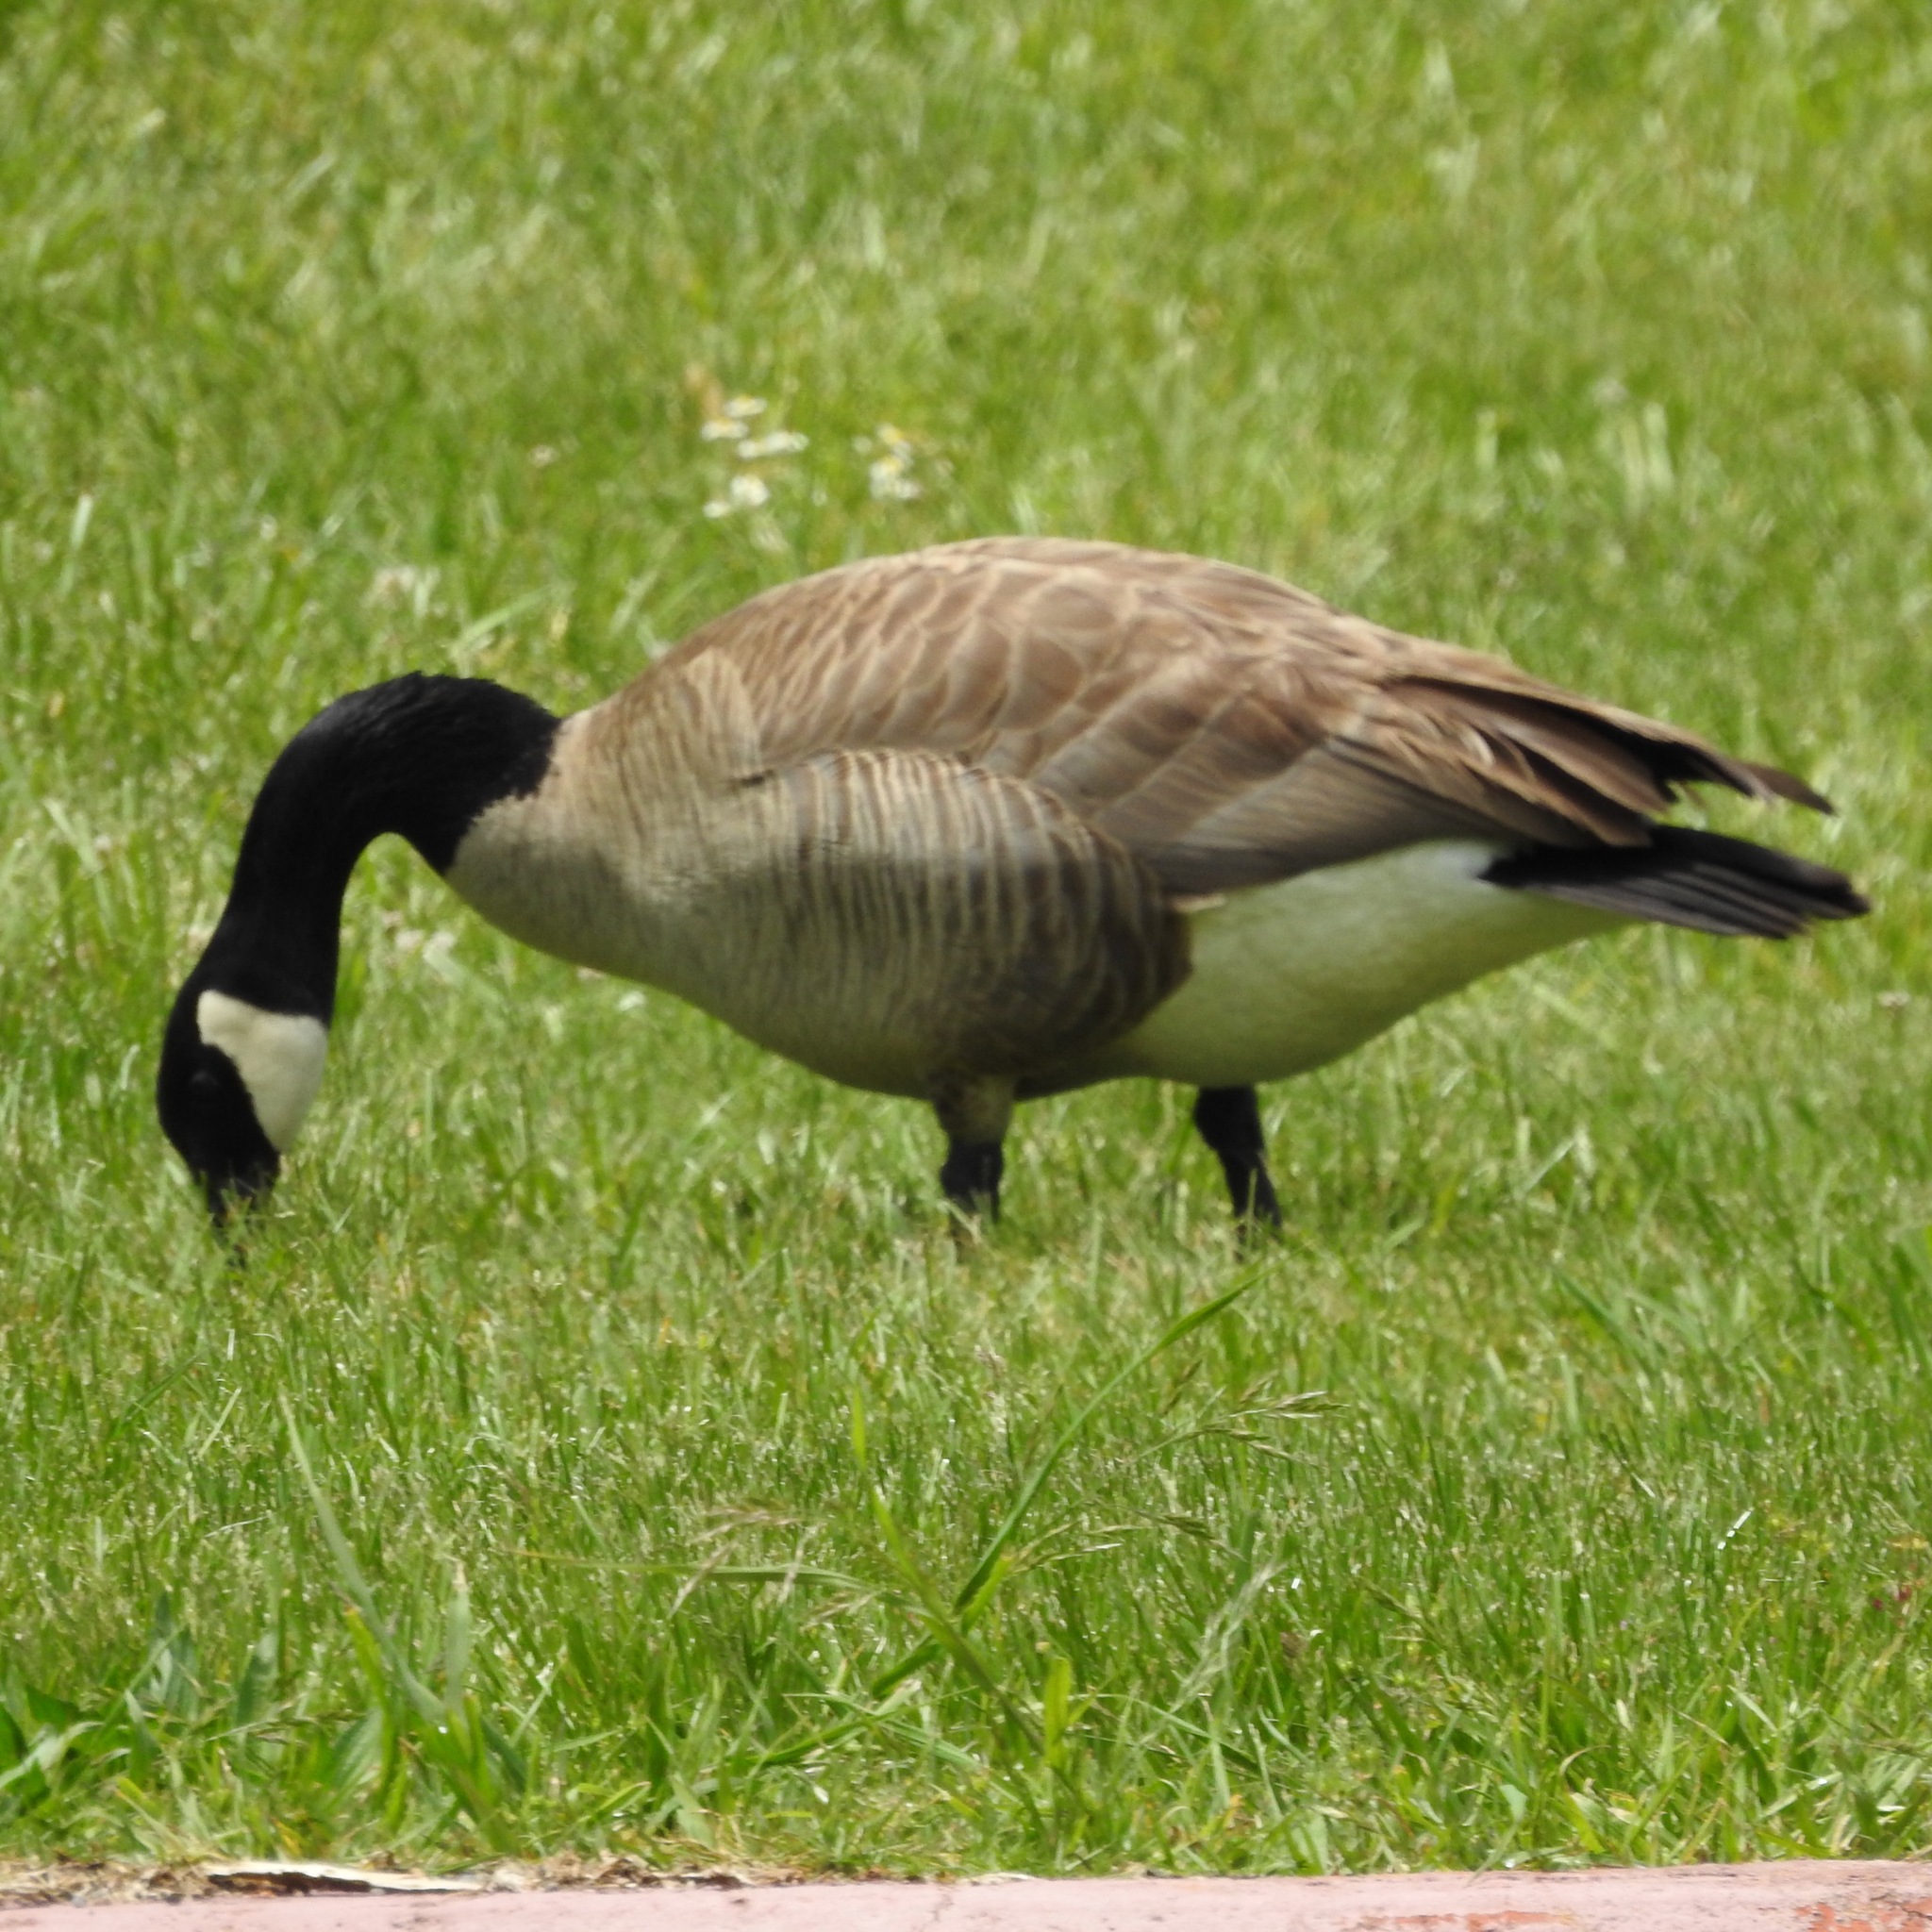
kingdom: Animalia
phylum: Chordata
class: Aves
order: Anseriformes
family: Anatidae
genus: Branta
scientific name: Branta canadensis
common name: Canada goose
